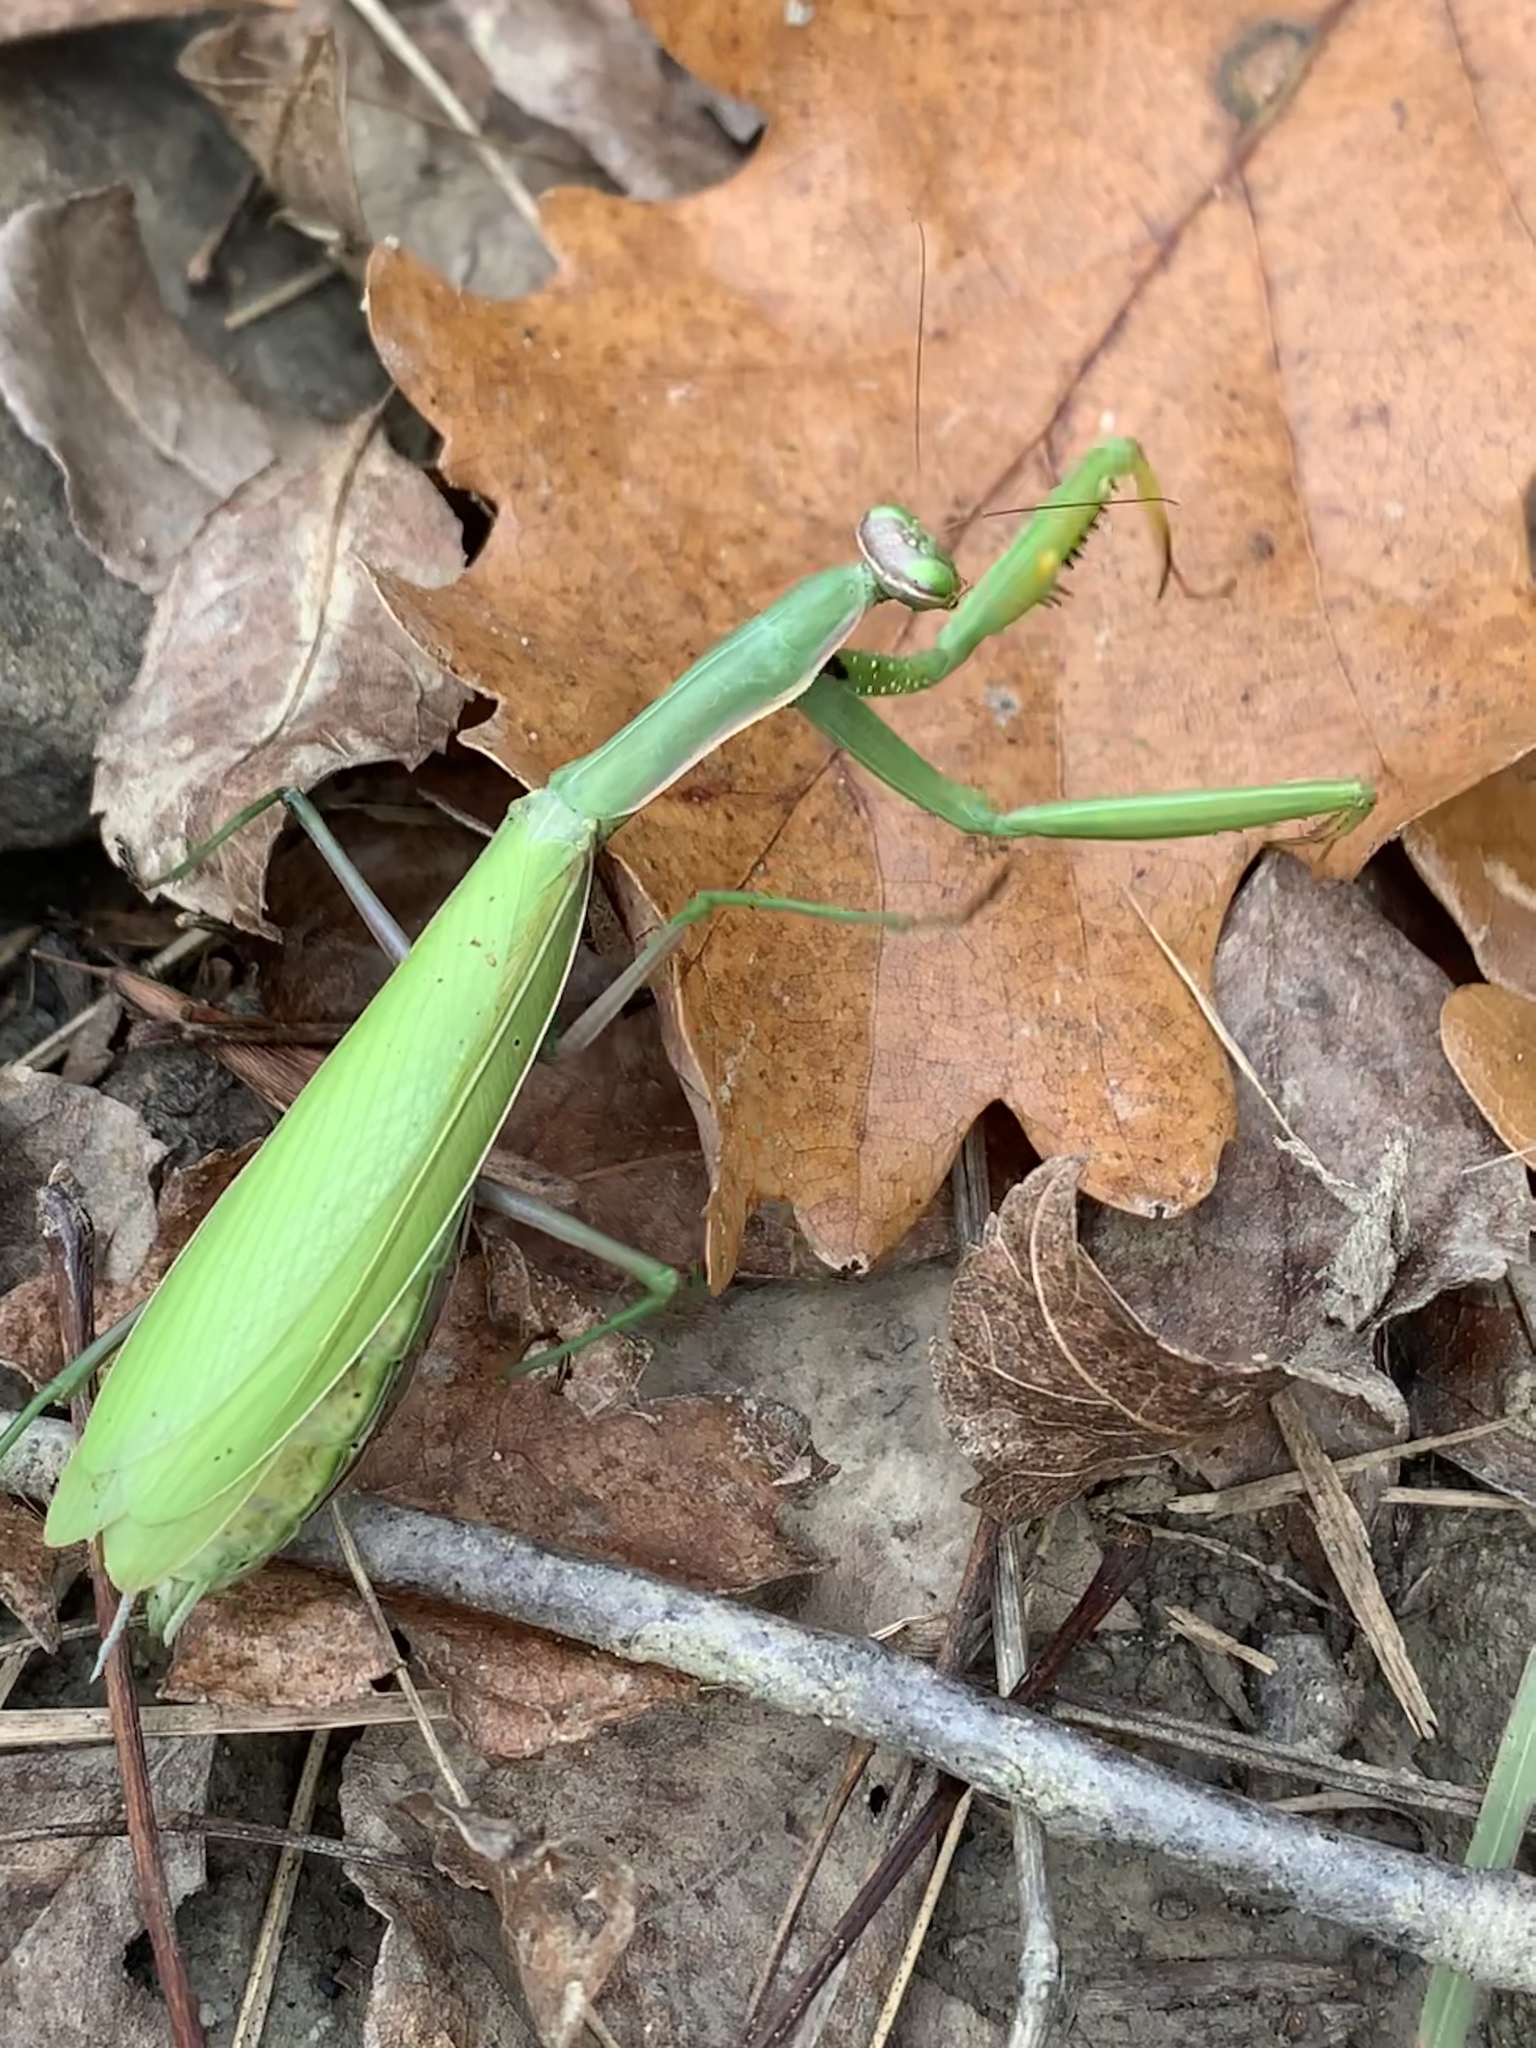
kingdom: Animalia
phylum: Arthropoda
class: Insecta
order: Mantodea
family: Mantidae
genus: Mantis
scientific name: Mantis religiosa
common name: Praying mantis
